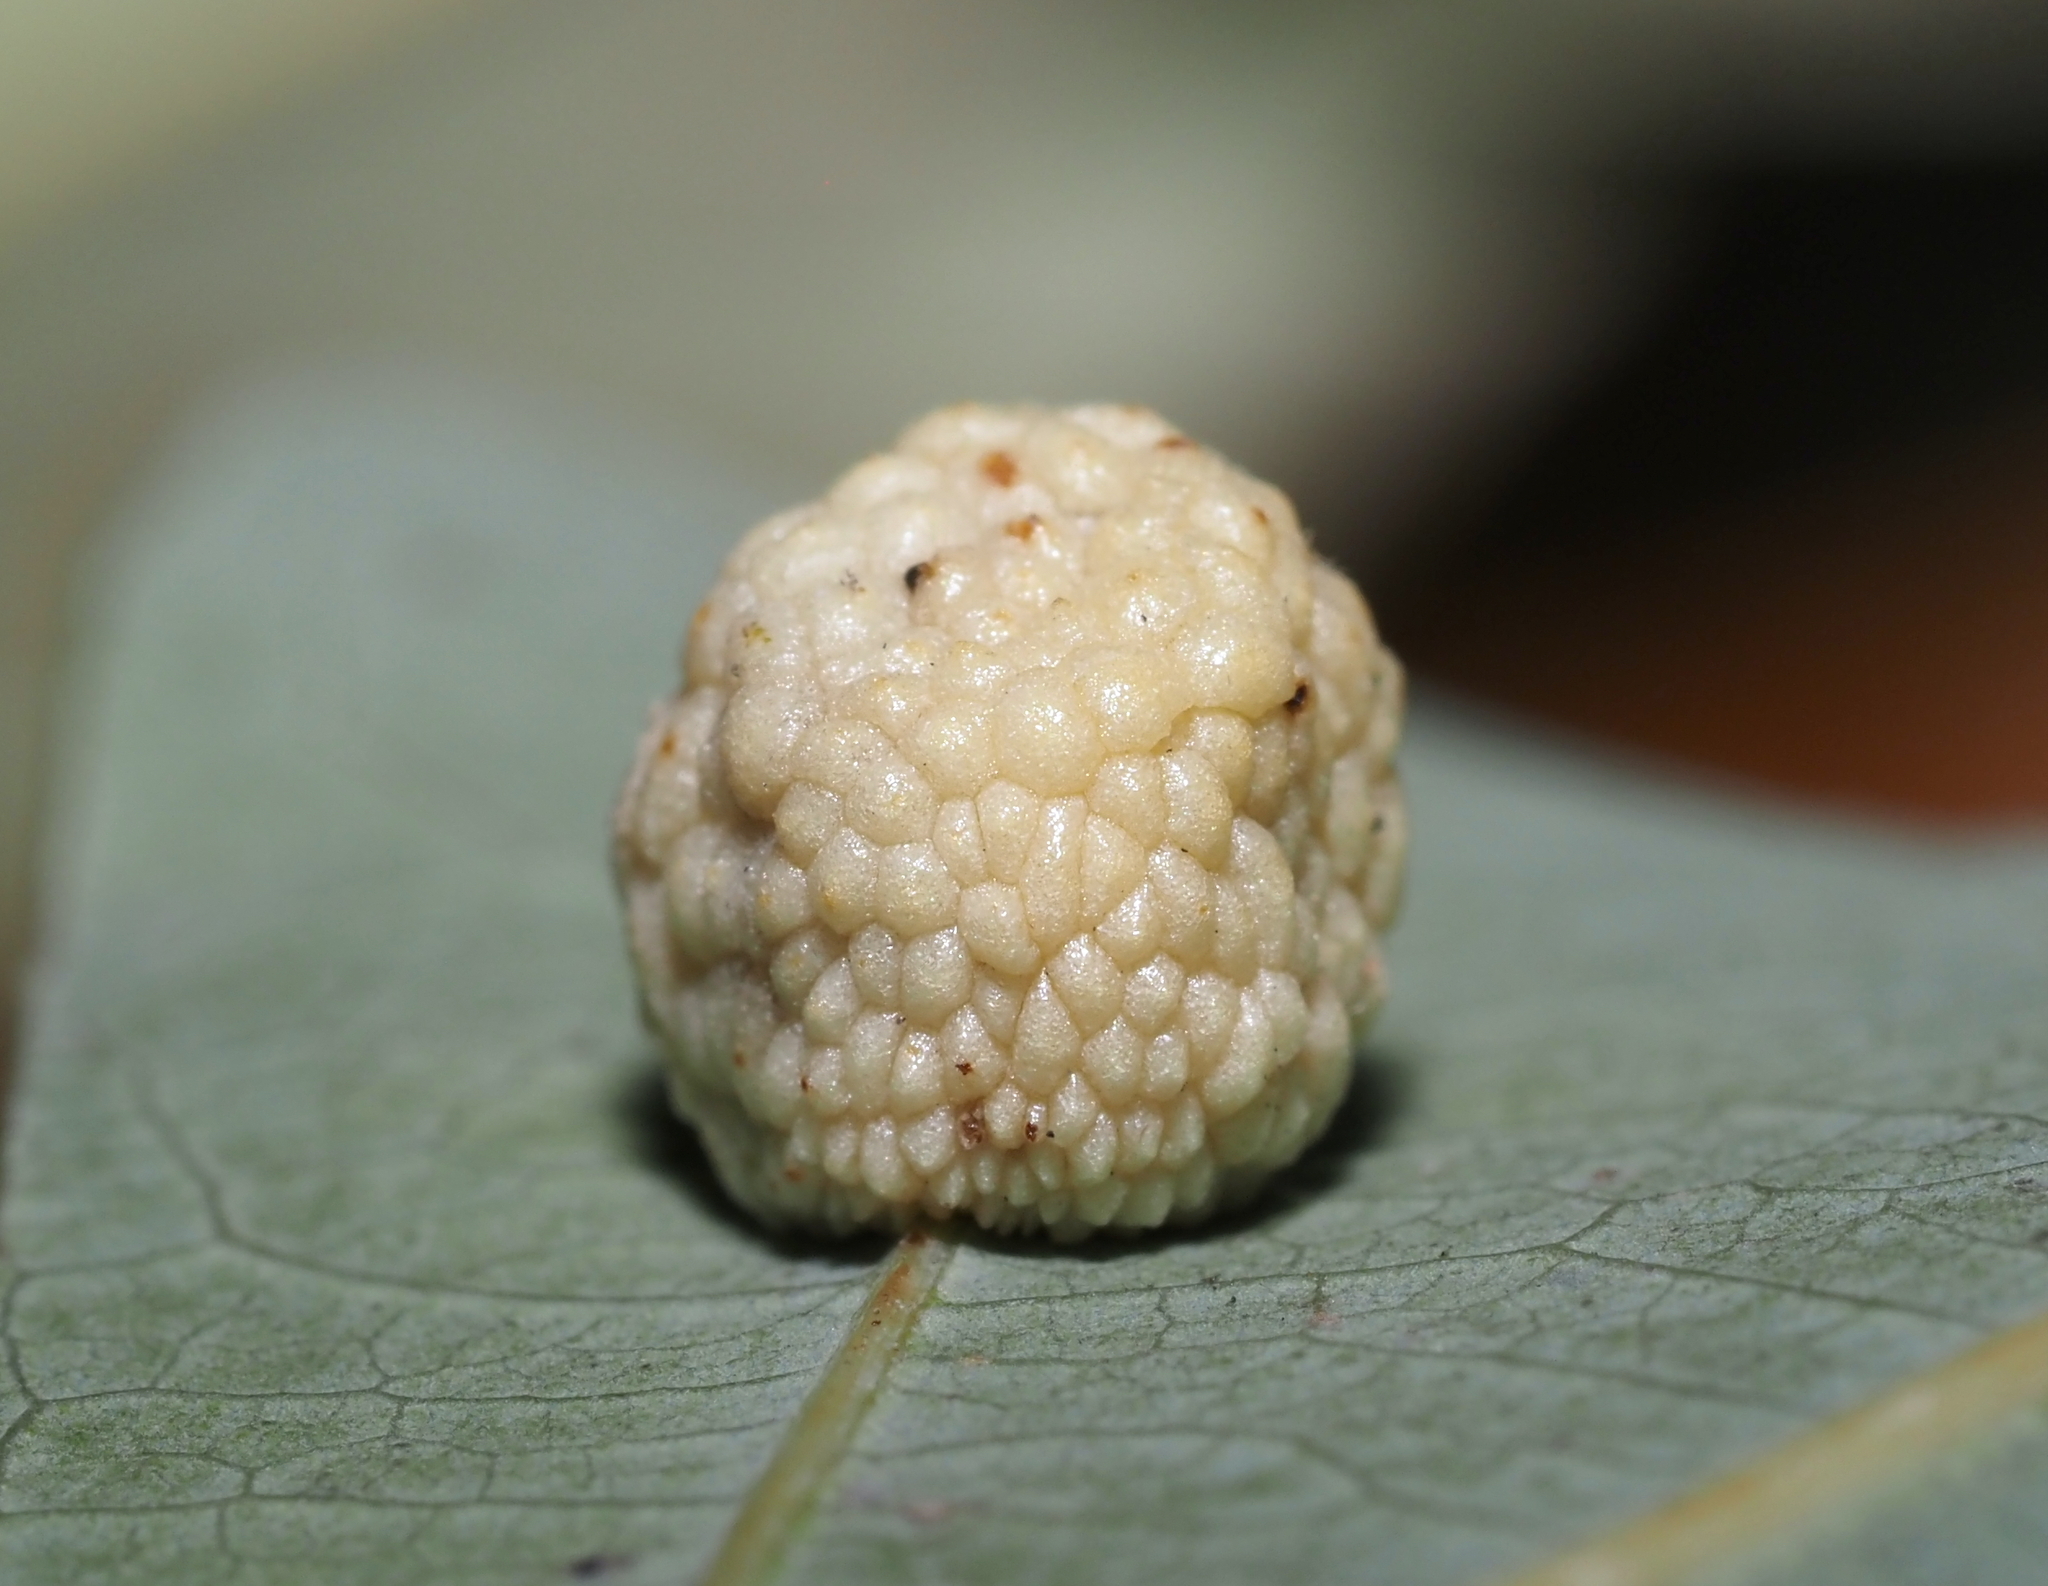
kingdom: Animalia
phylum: Arthropoda
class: Insecta
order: Hymenoptera
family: Cynipidae
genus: Acraspis
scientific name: Acraspis
